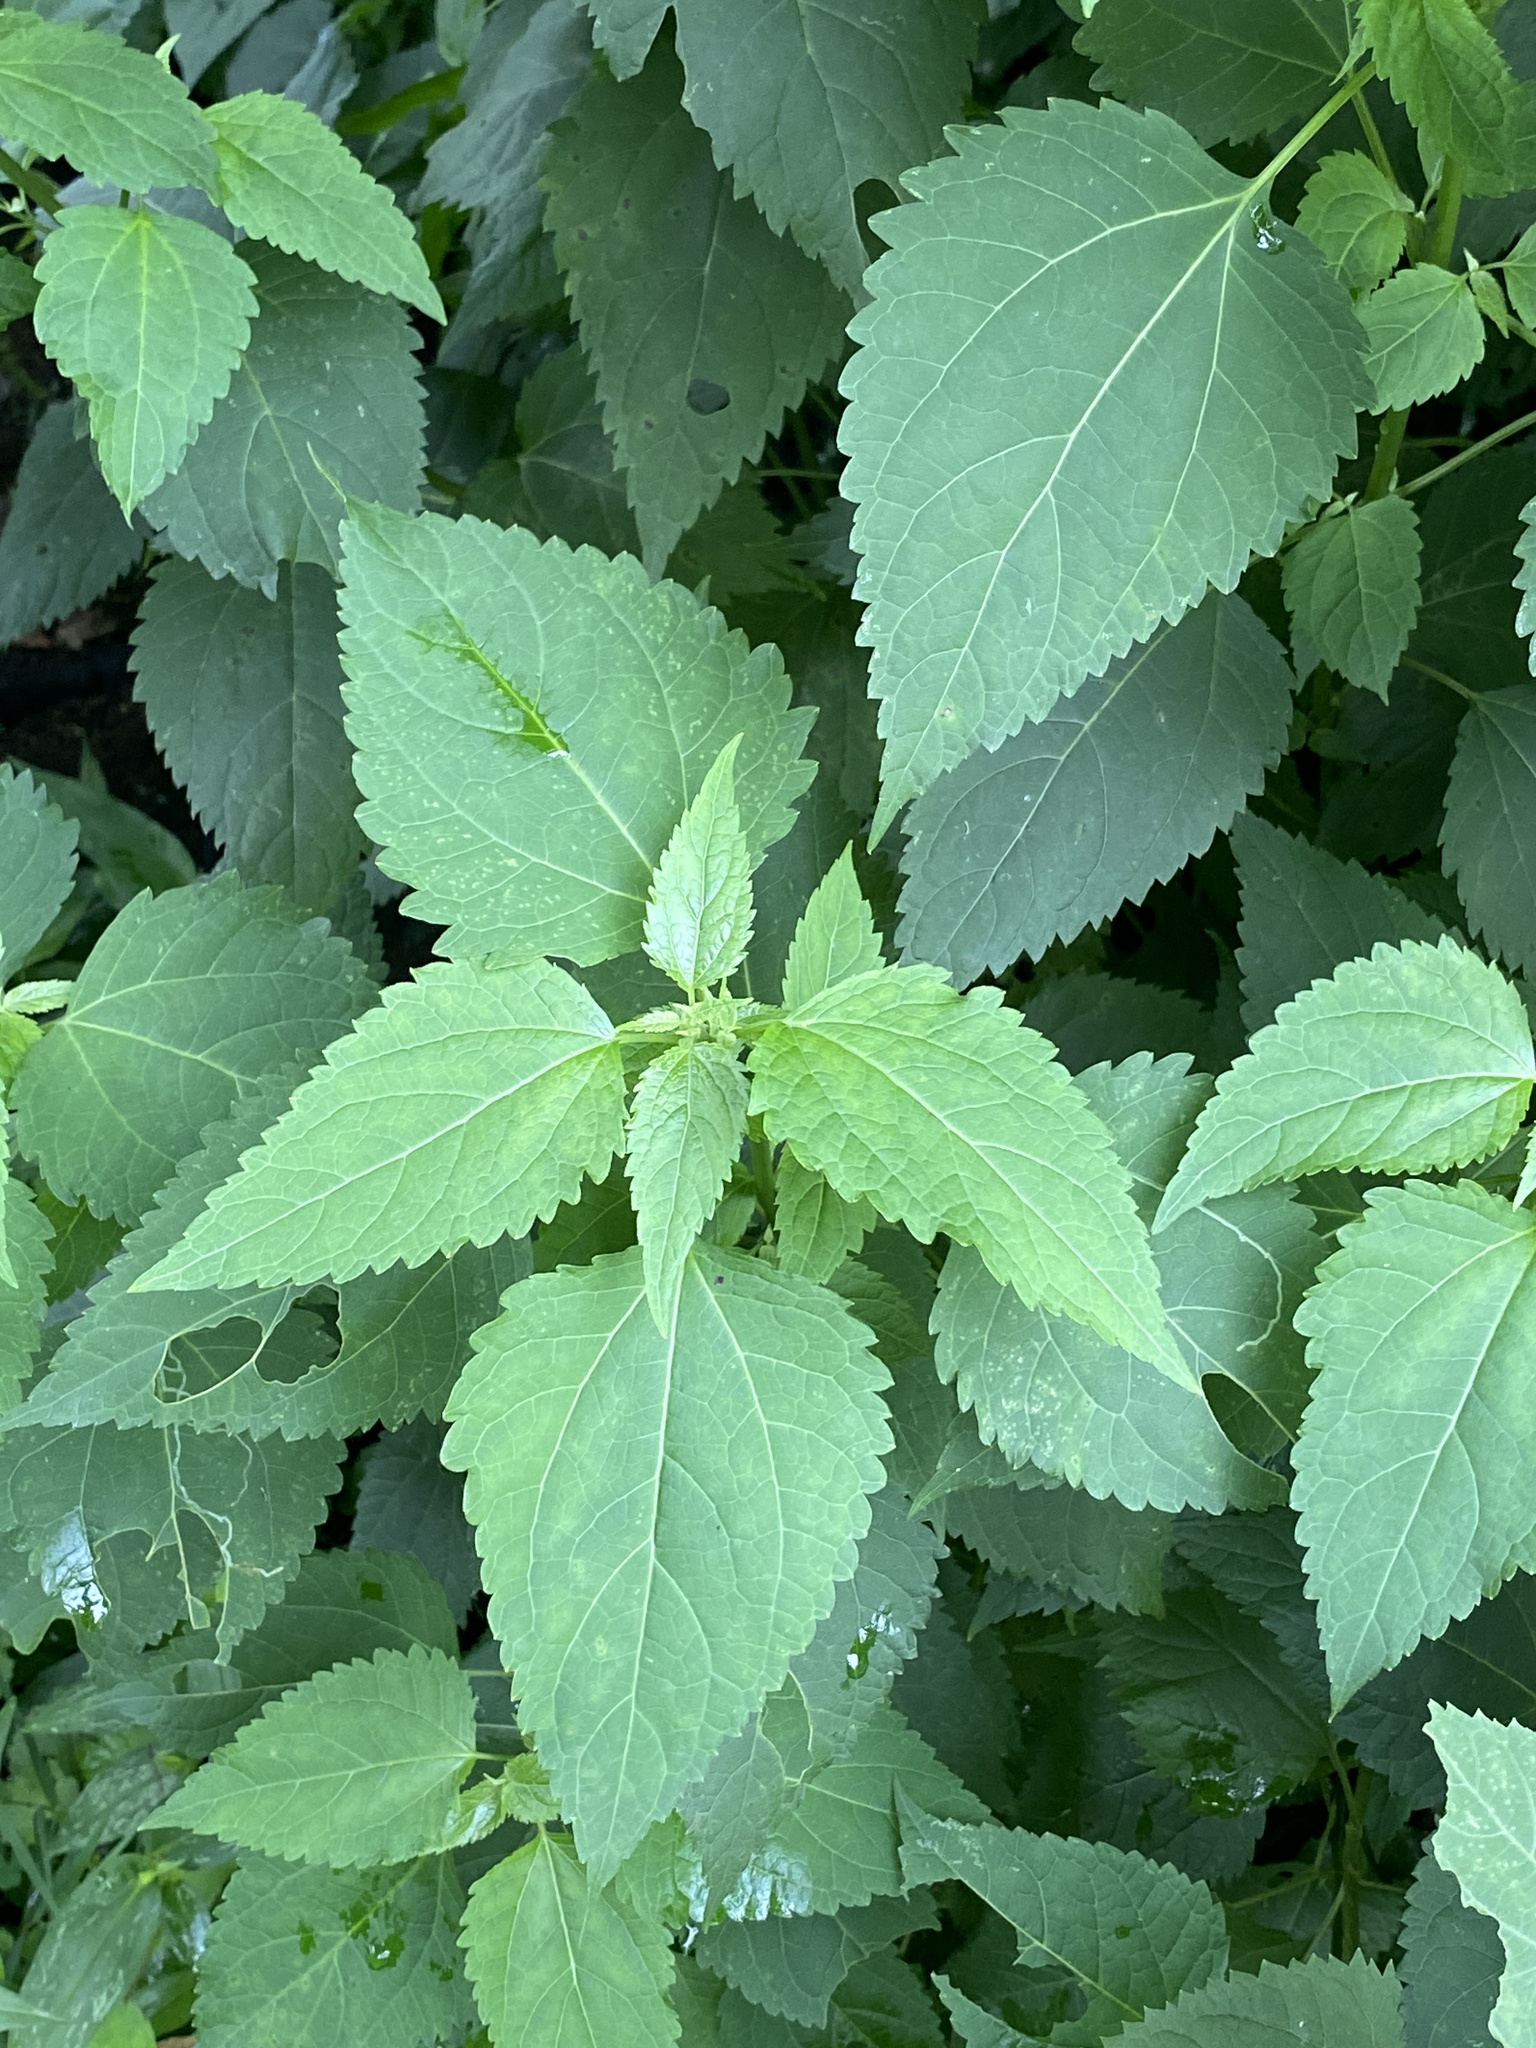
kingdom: Plantae
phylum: Tracheophyta
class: Magnoliopsida
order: Asterales
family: Asteraceae
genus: Ageratina
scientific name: Ageratina altissima
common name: White snakeroot
